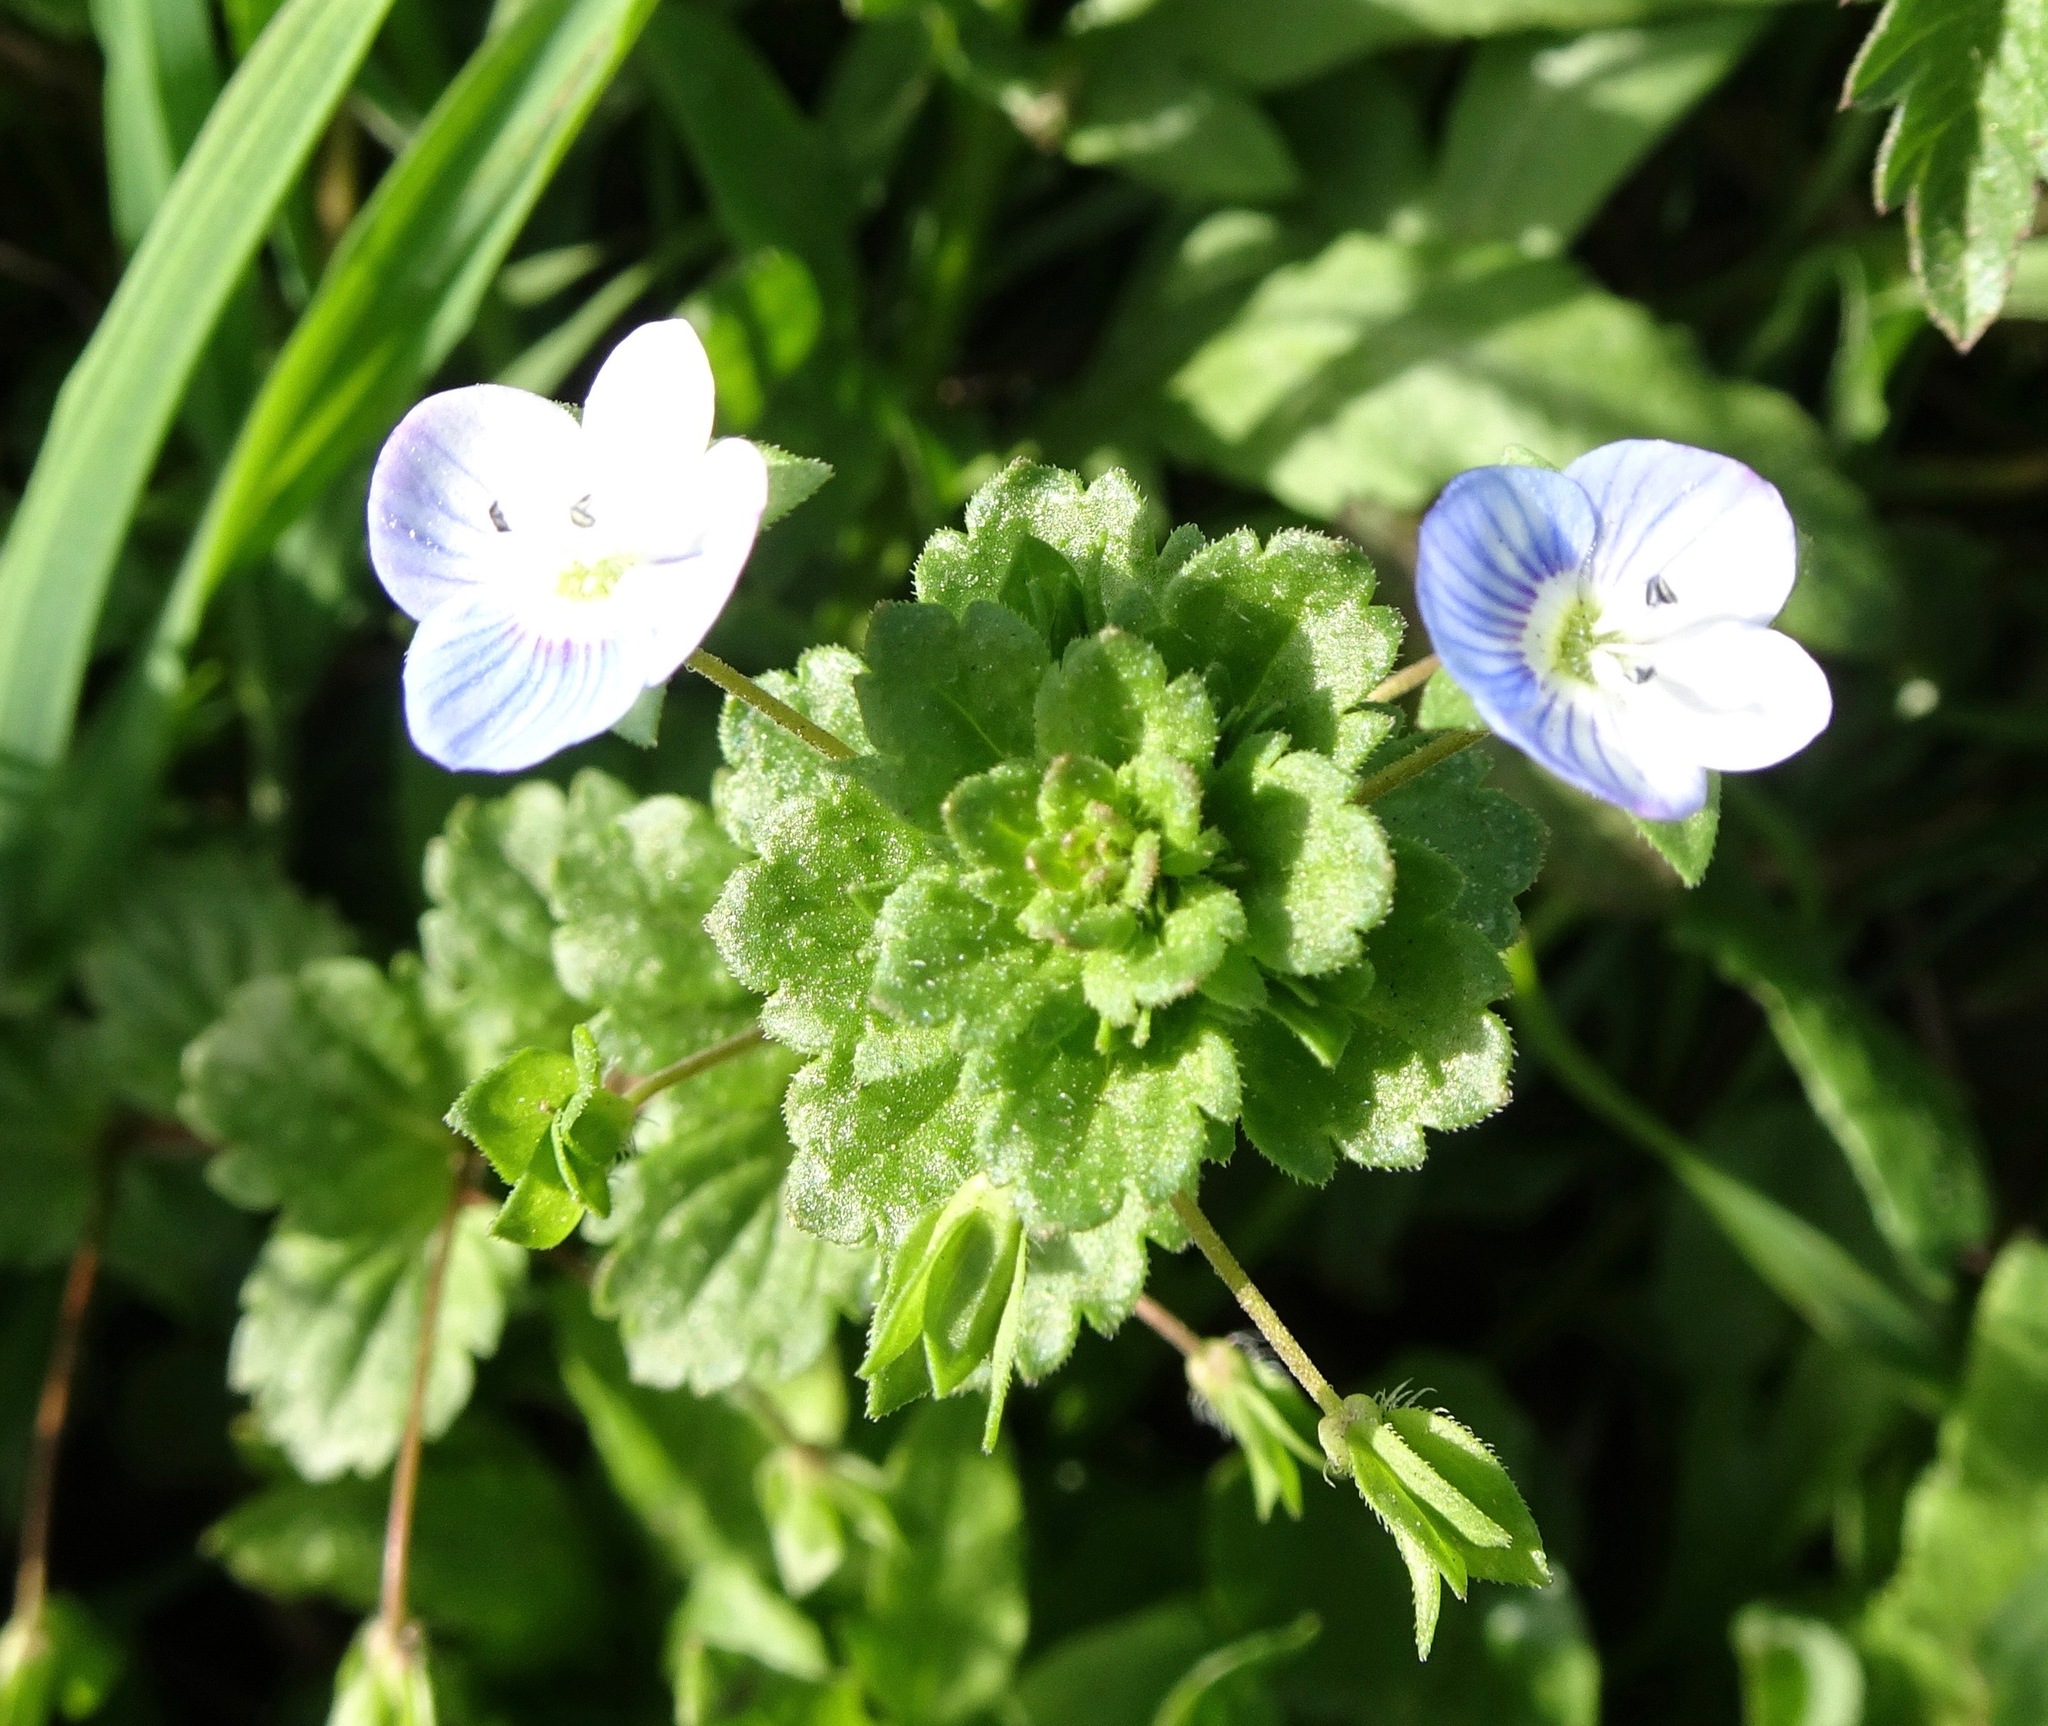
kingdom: Plantae
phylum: Tracheophyta
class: Magnoliopsida
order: Lamiales
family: Plantaginaceae
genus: Veronica
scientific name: Veronica persica
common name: Common field-speedwell
